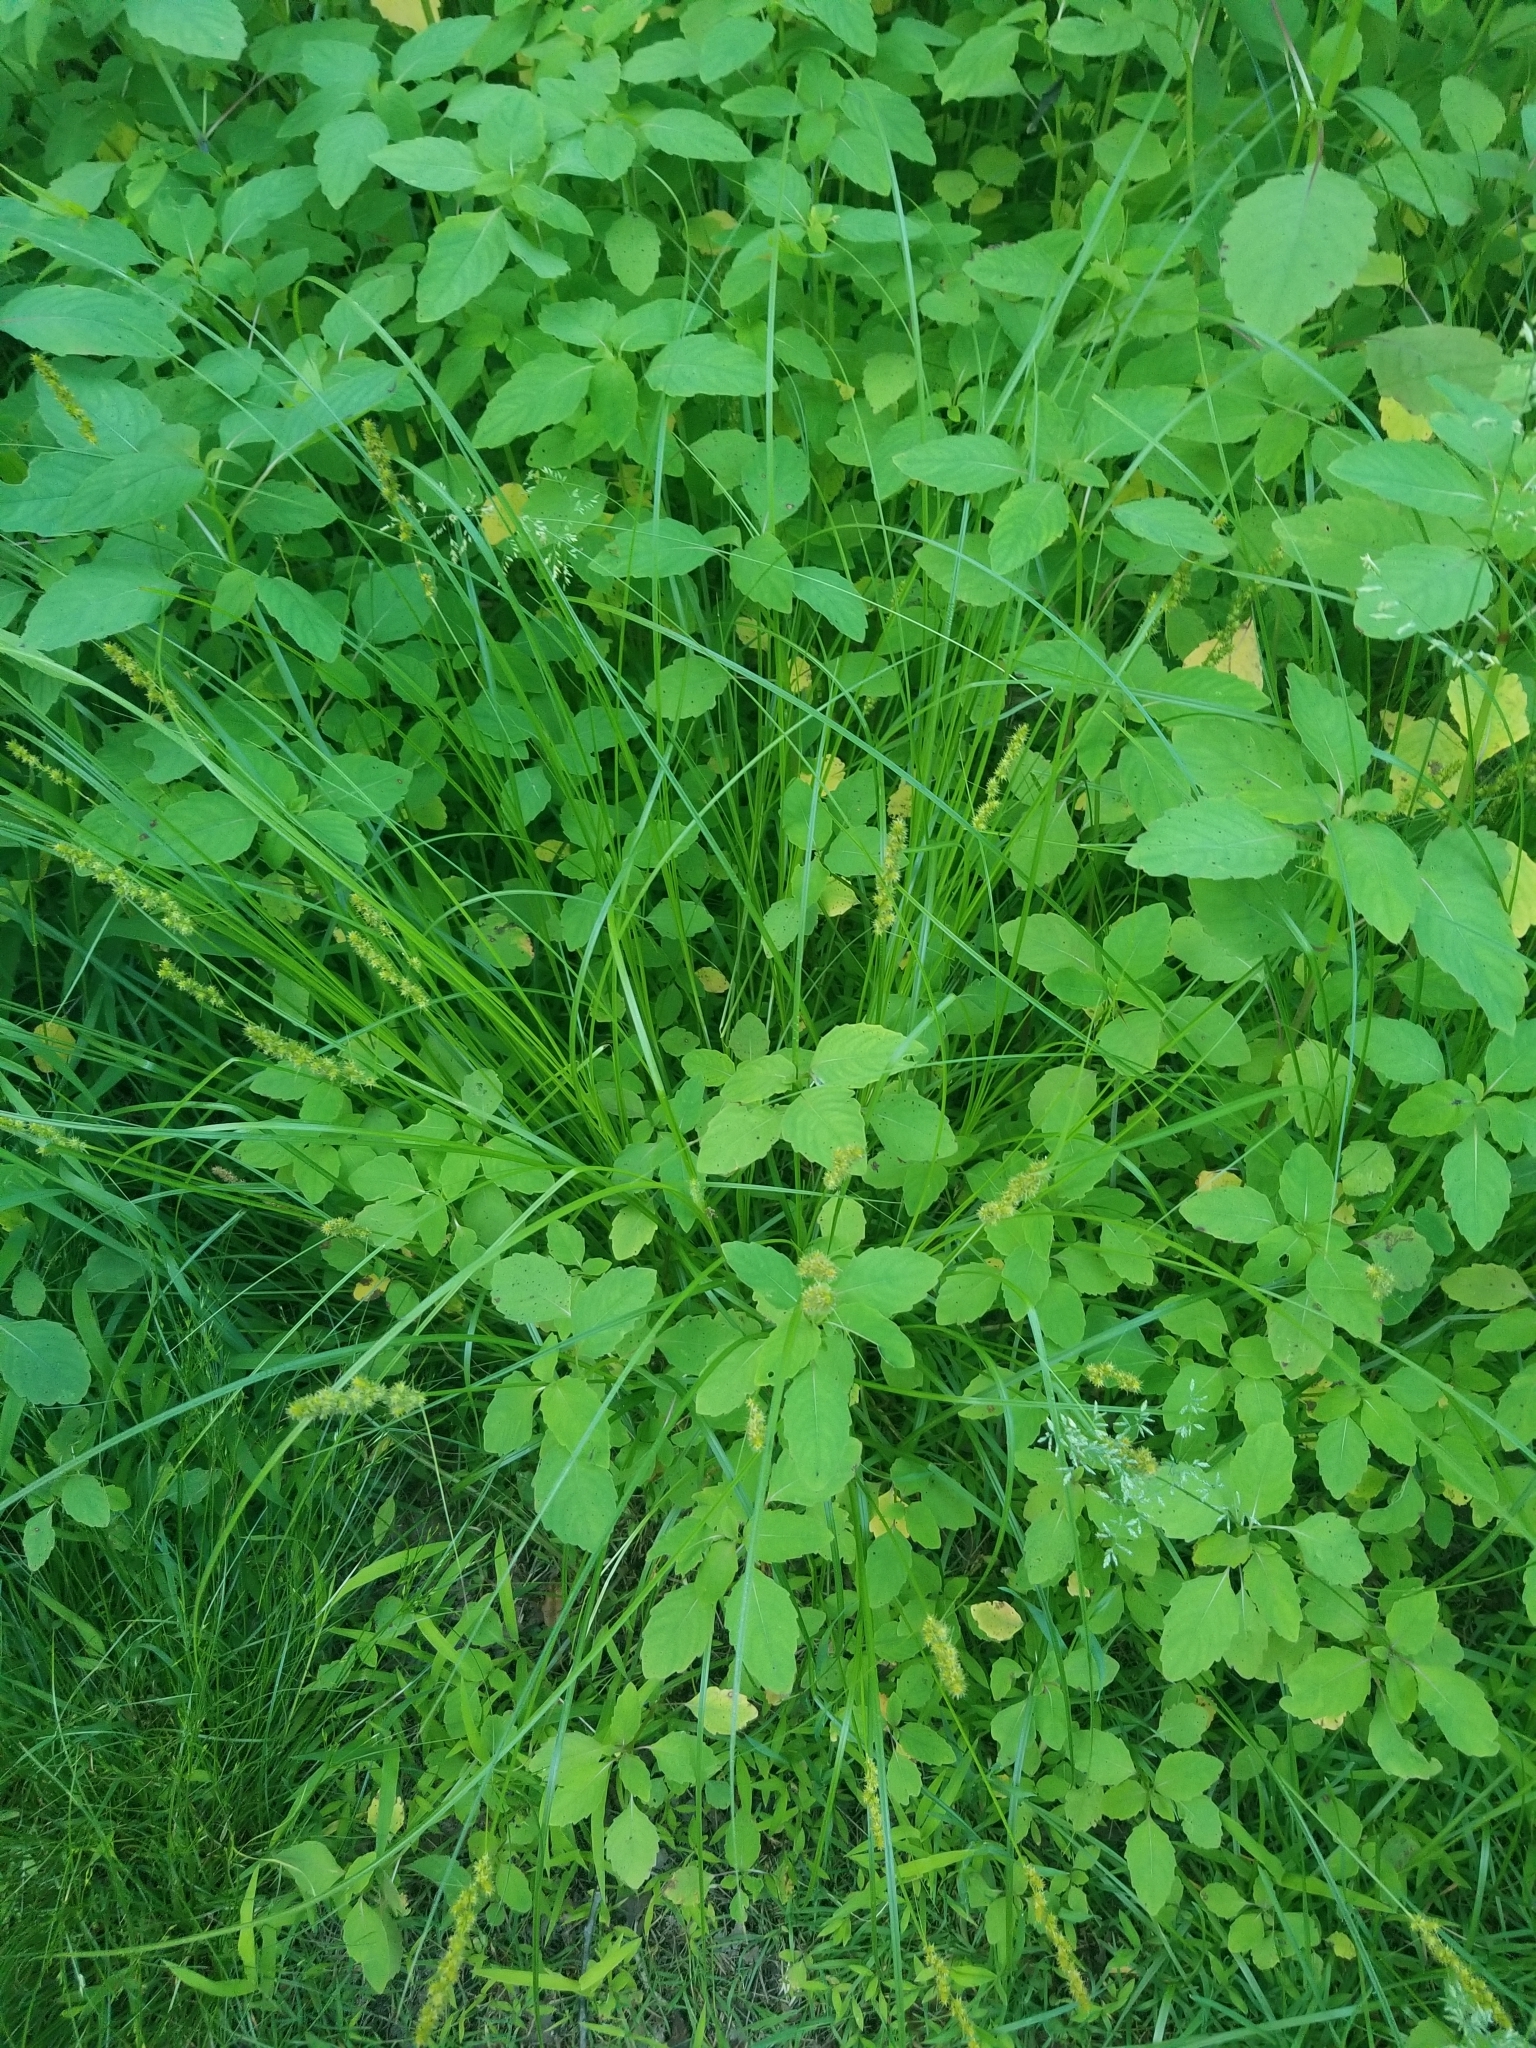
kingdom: Plantae
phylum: Tracheophyta
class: Liliopsida
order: Poales
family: Cyperaceae
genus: Carex
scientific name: Carex vulpinoidea
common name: American fox-sedge
